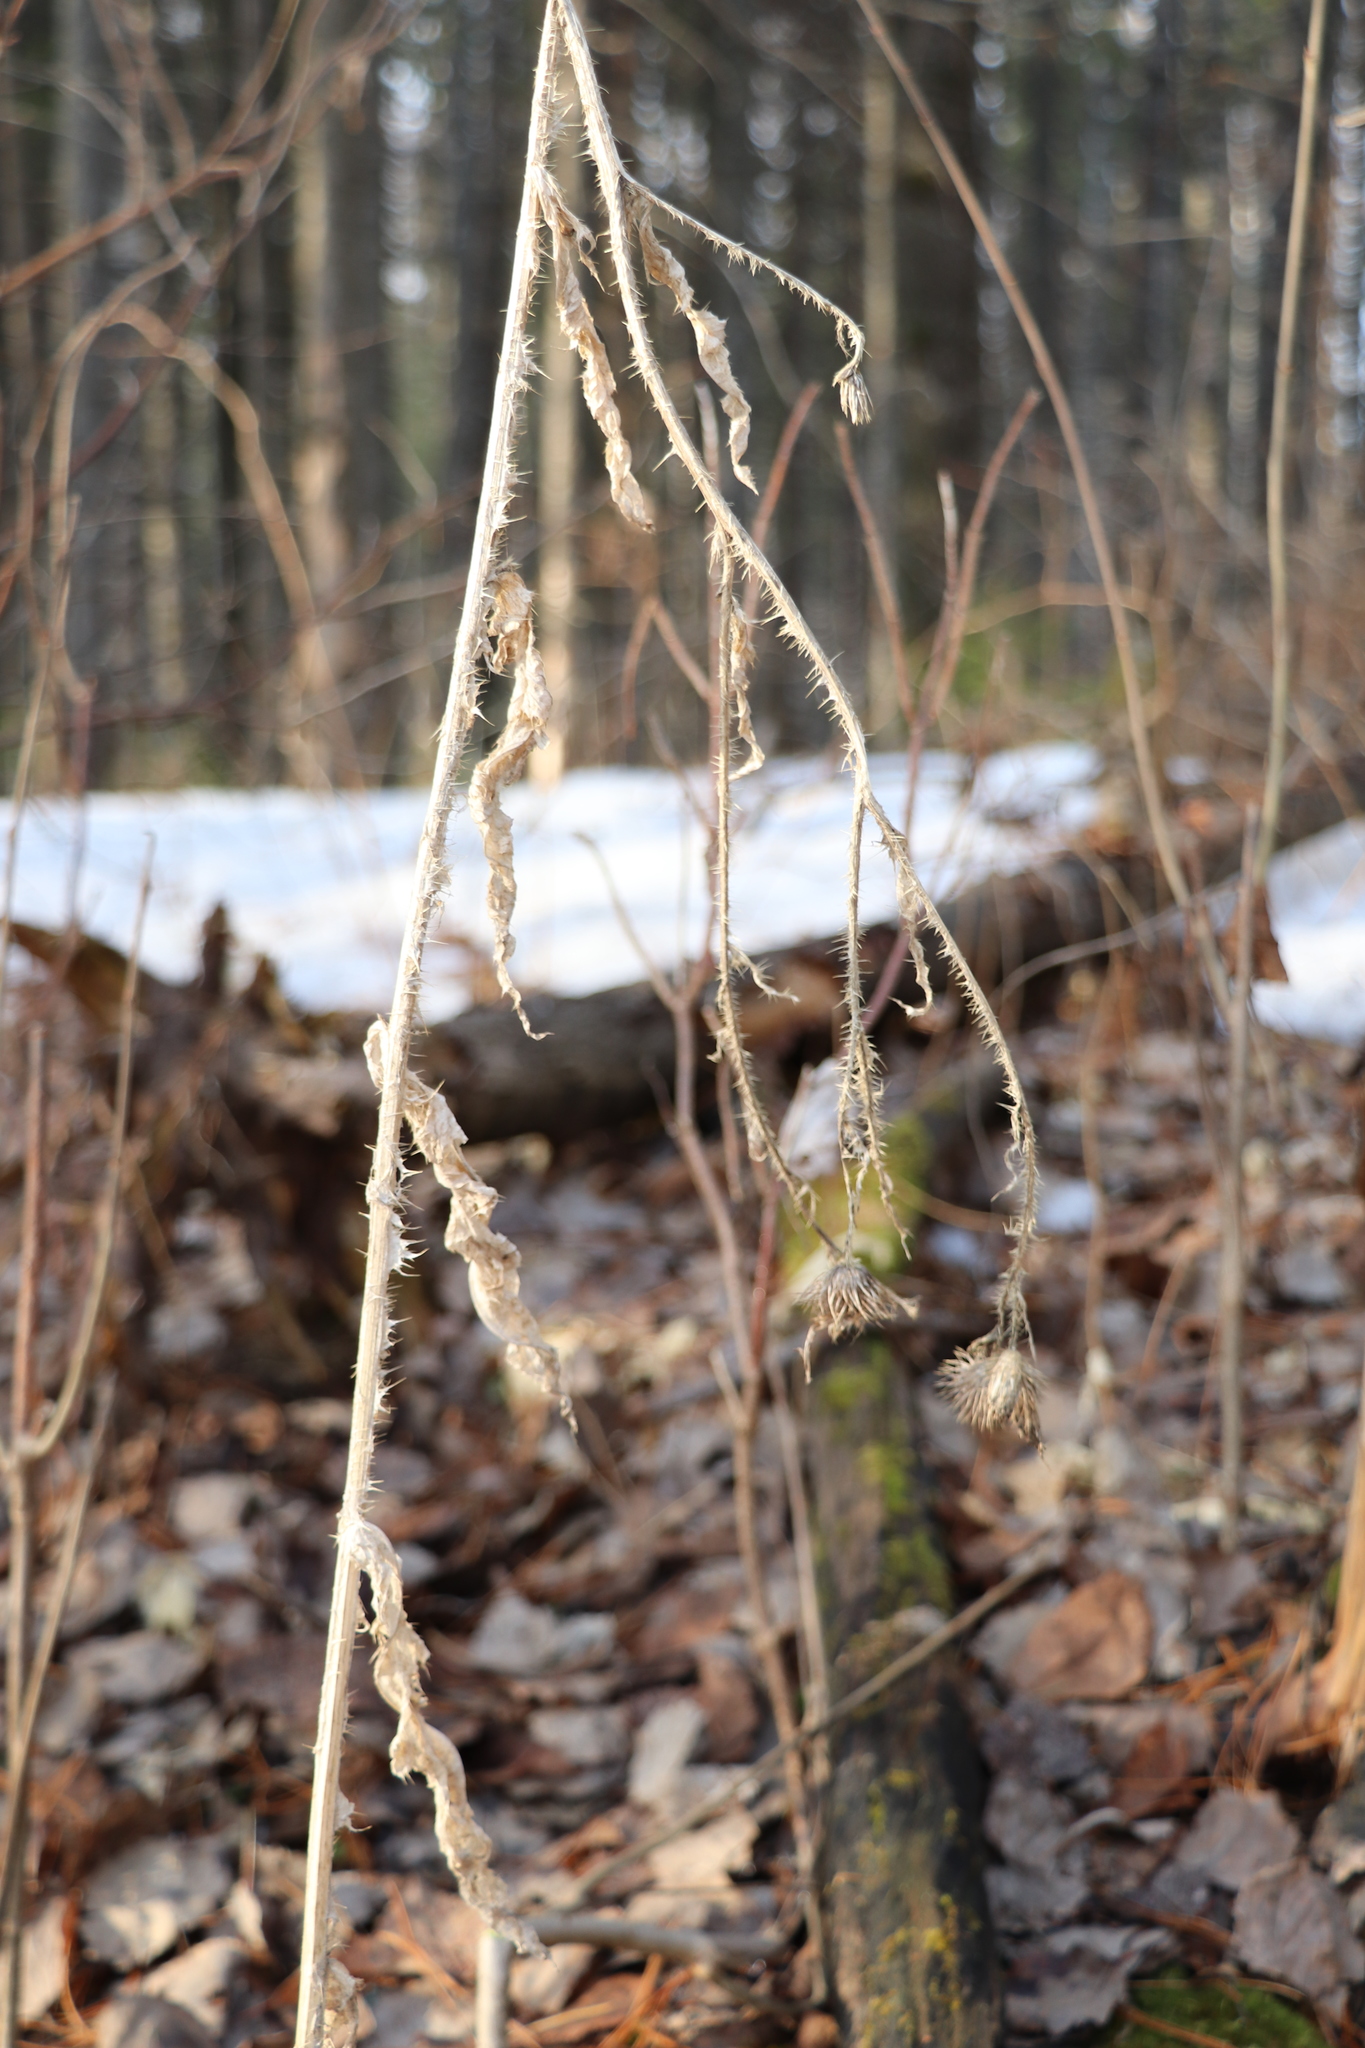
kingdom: Plantae
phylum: Tracheophyta
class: Magnoliopsida
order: Asterales
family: Asteraceae
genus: Carduus
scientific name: Carduus crispus
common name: Welted thistle
